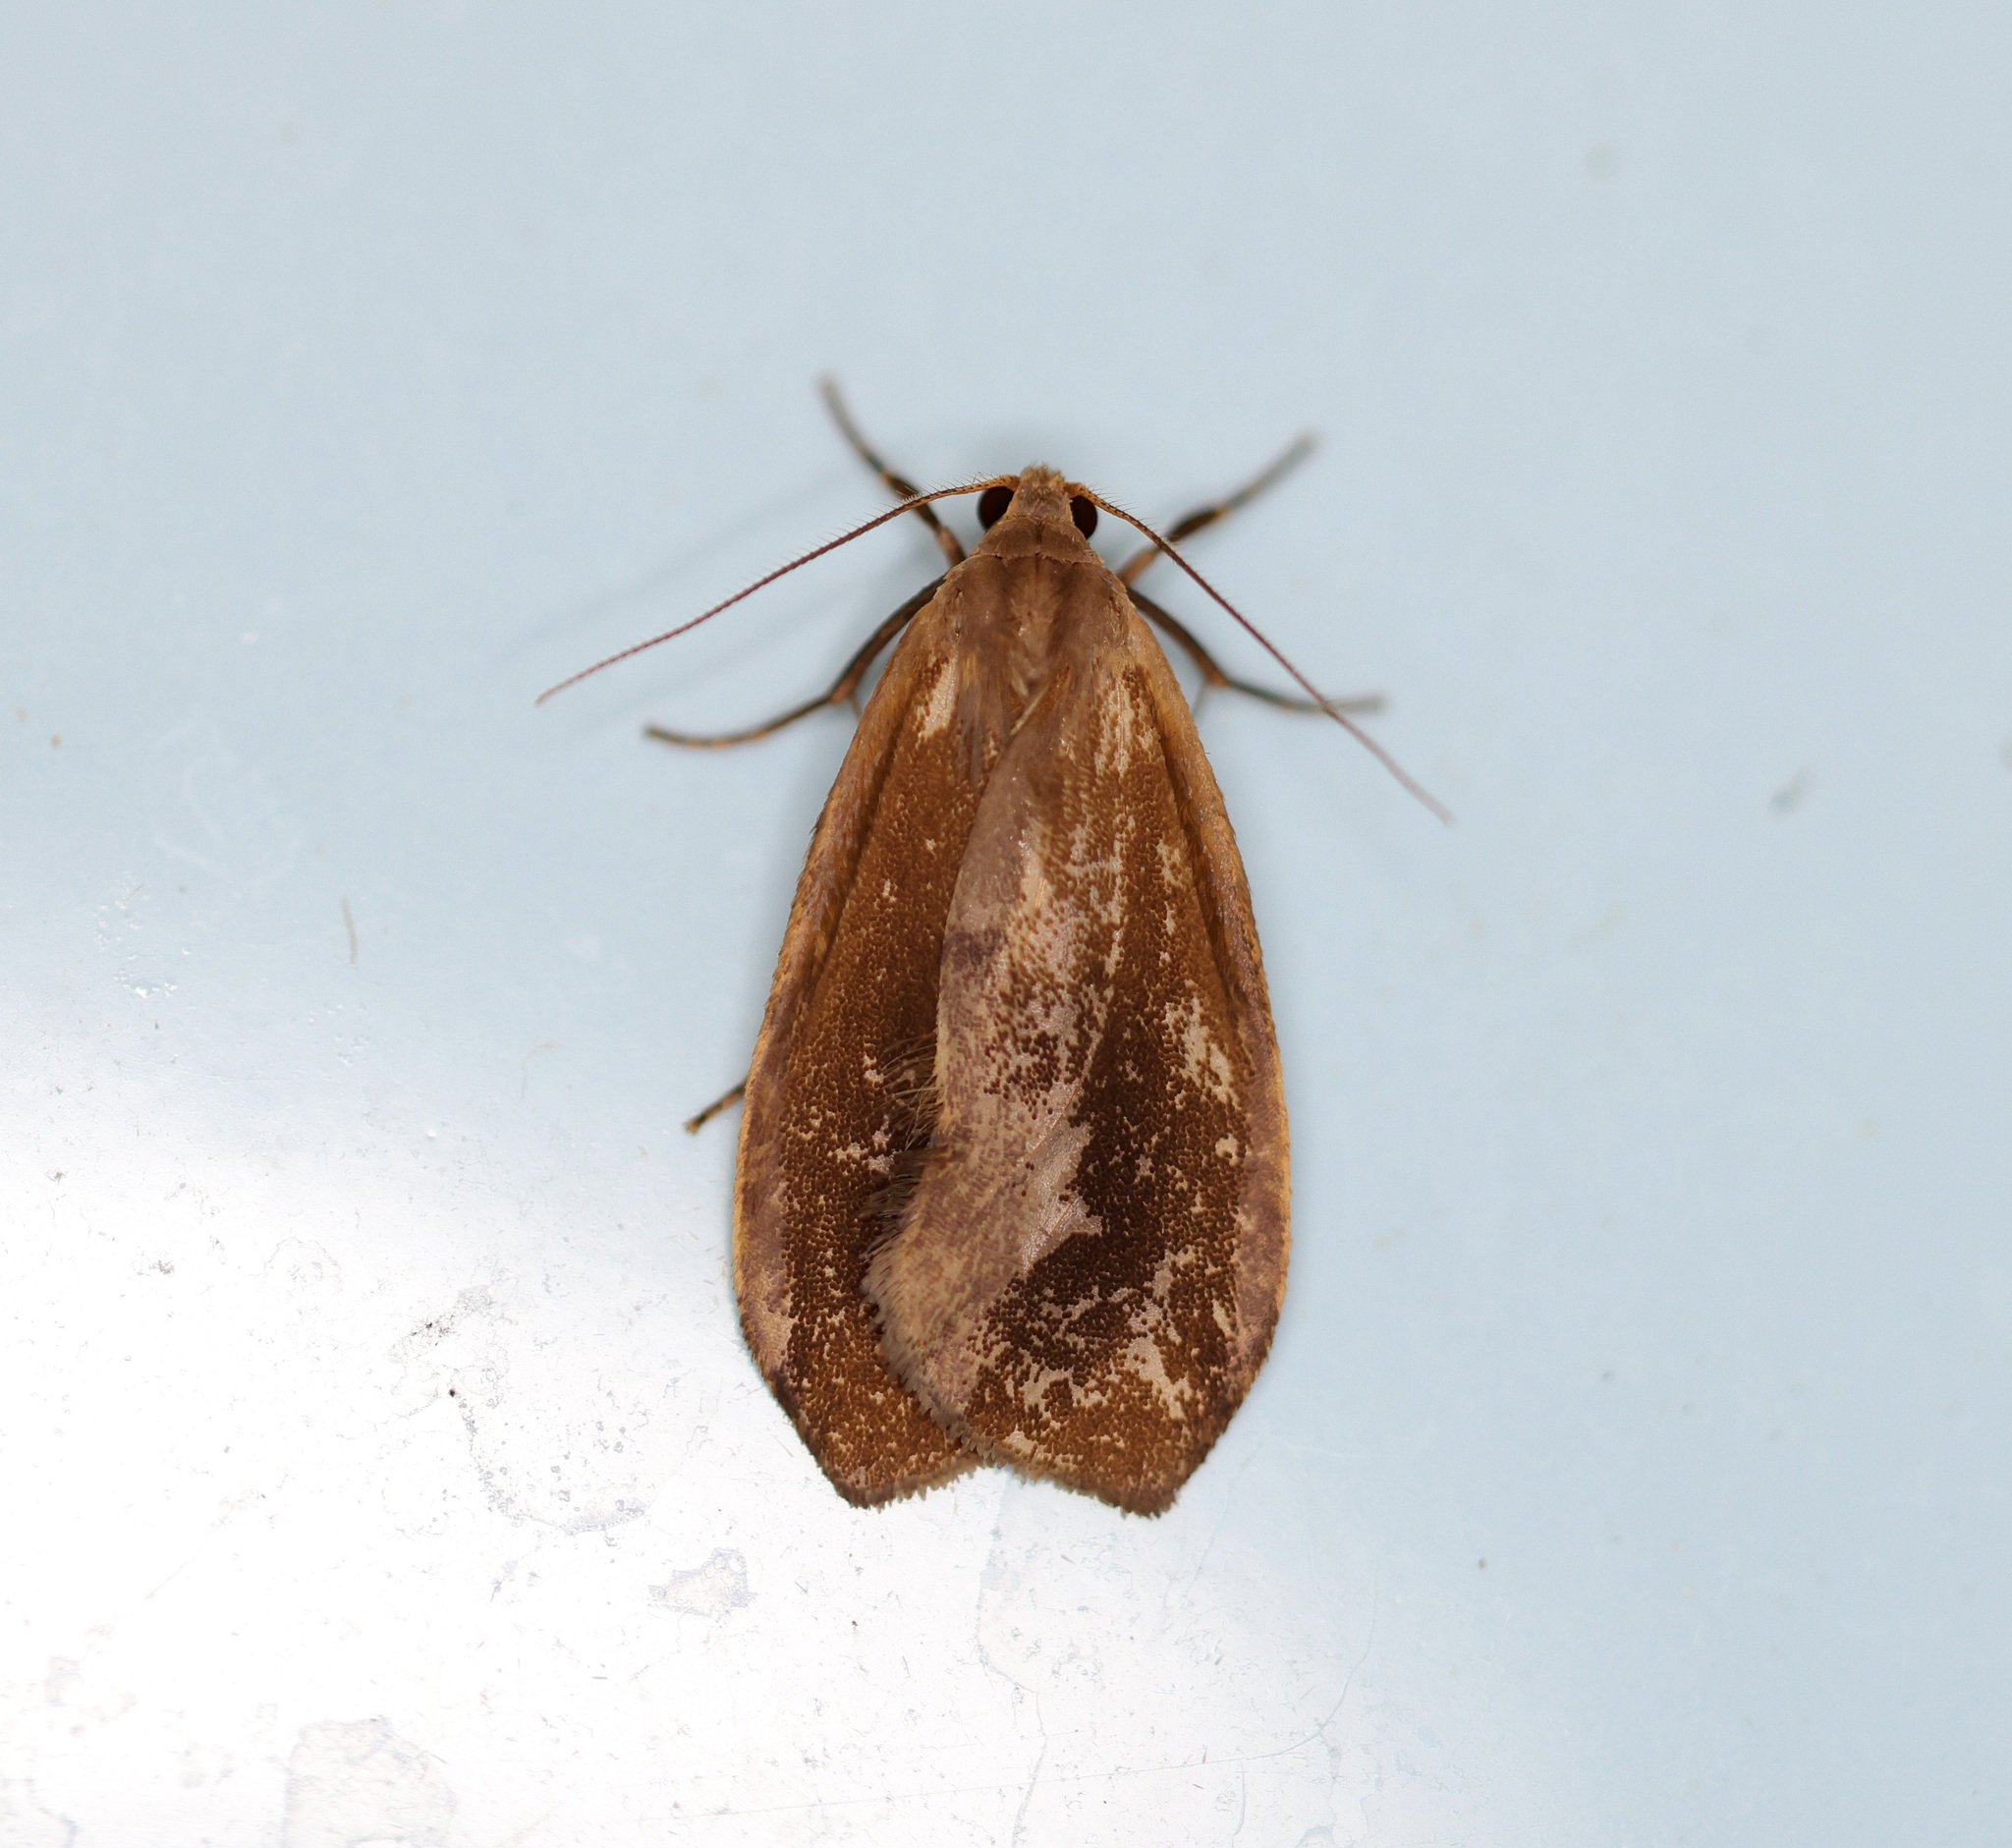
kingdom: Animalia
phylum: Arthropoda
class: Insecta
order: Lepidoptera
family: Erebidae
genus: Gampola
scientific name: Gampola sinica
